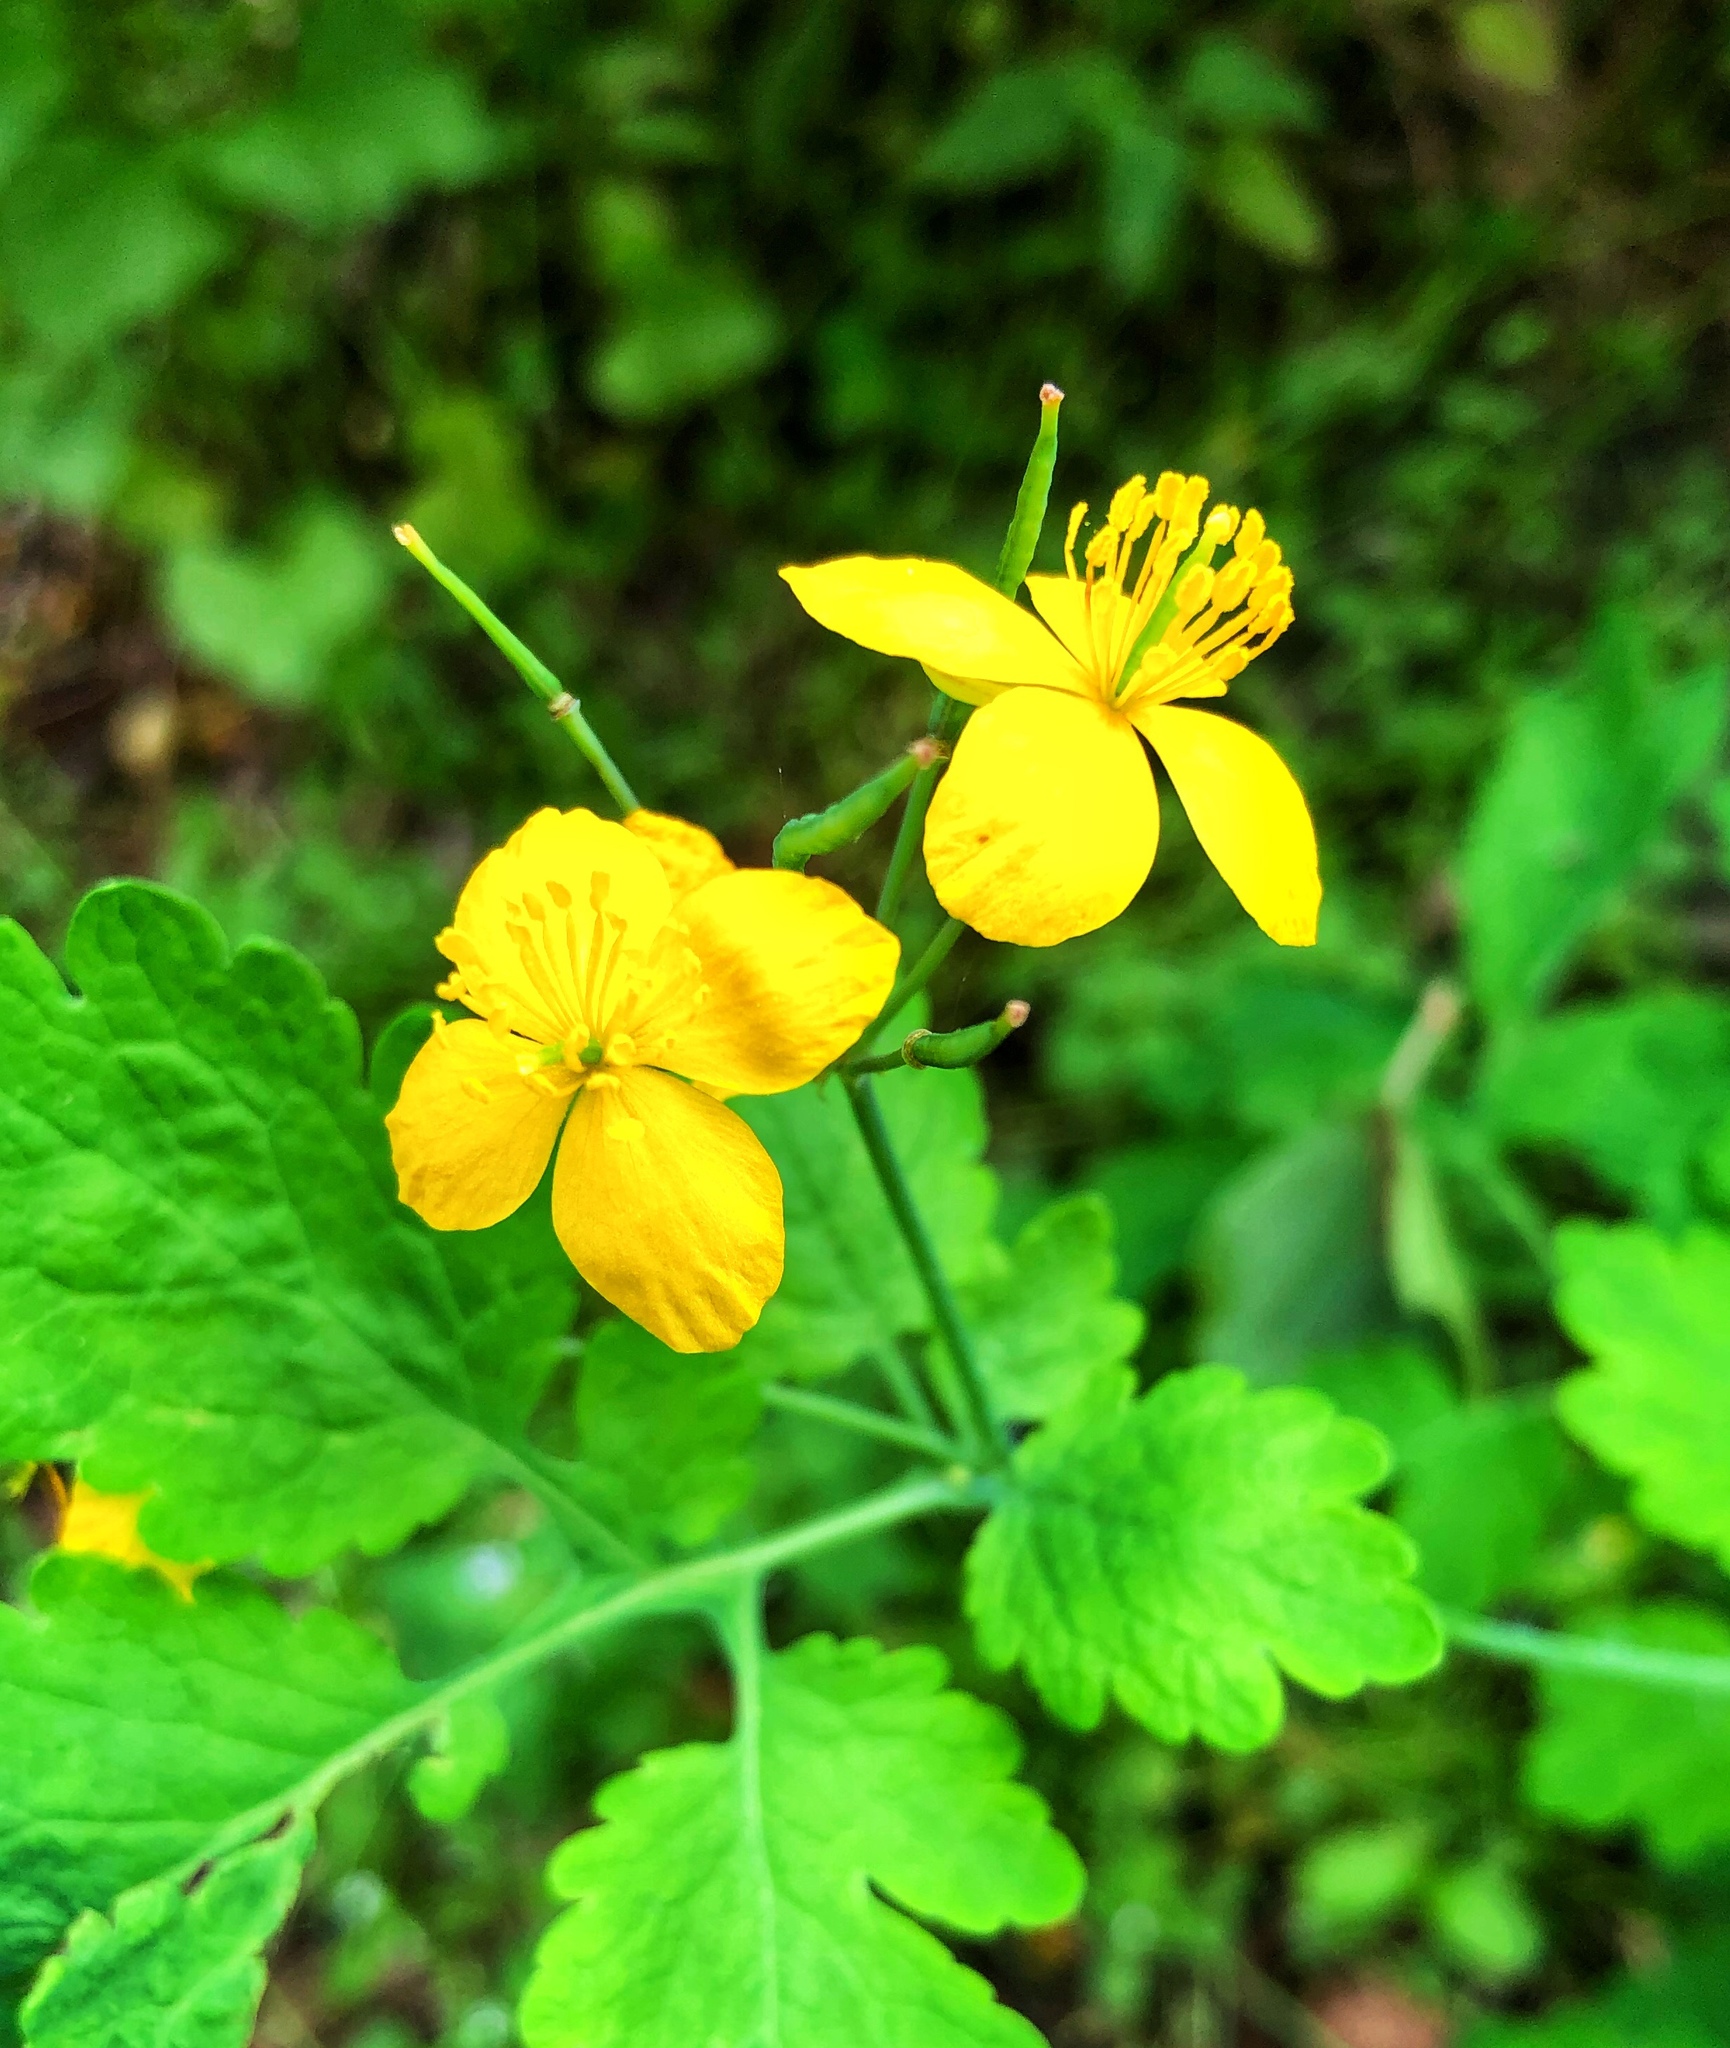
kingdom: Plantae
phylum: Tracheophyta
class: Magnoliopsida
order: Ranunculales
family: Papaveraceae
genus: Chelidonium
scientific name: Chelidonium majus
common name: Greater celandine
